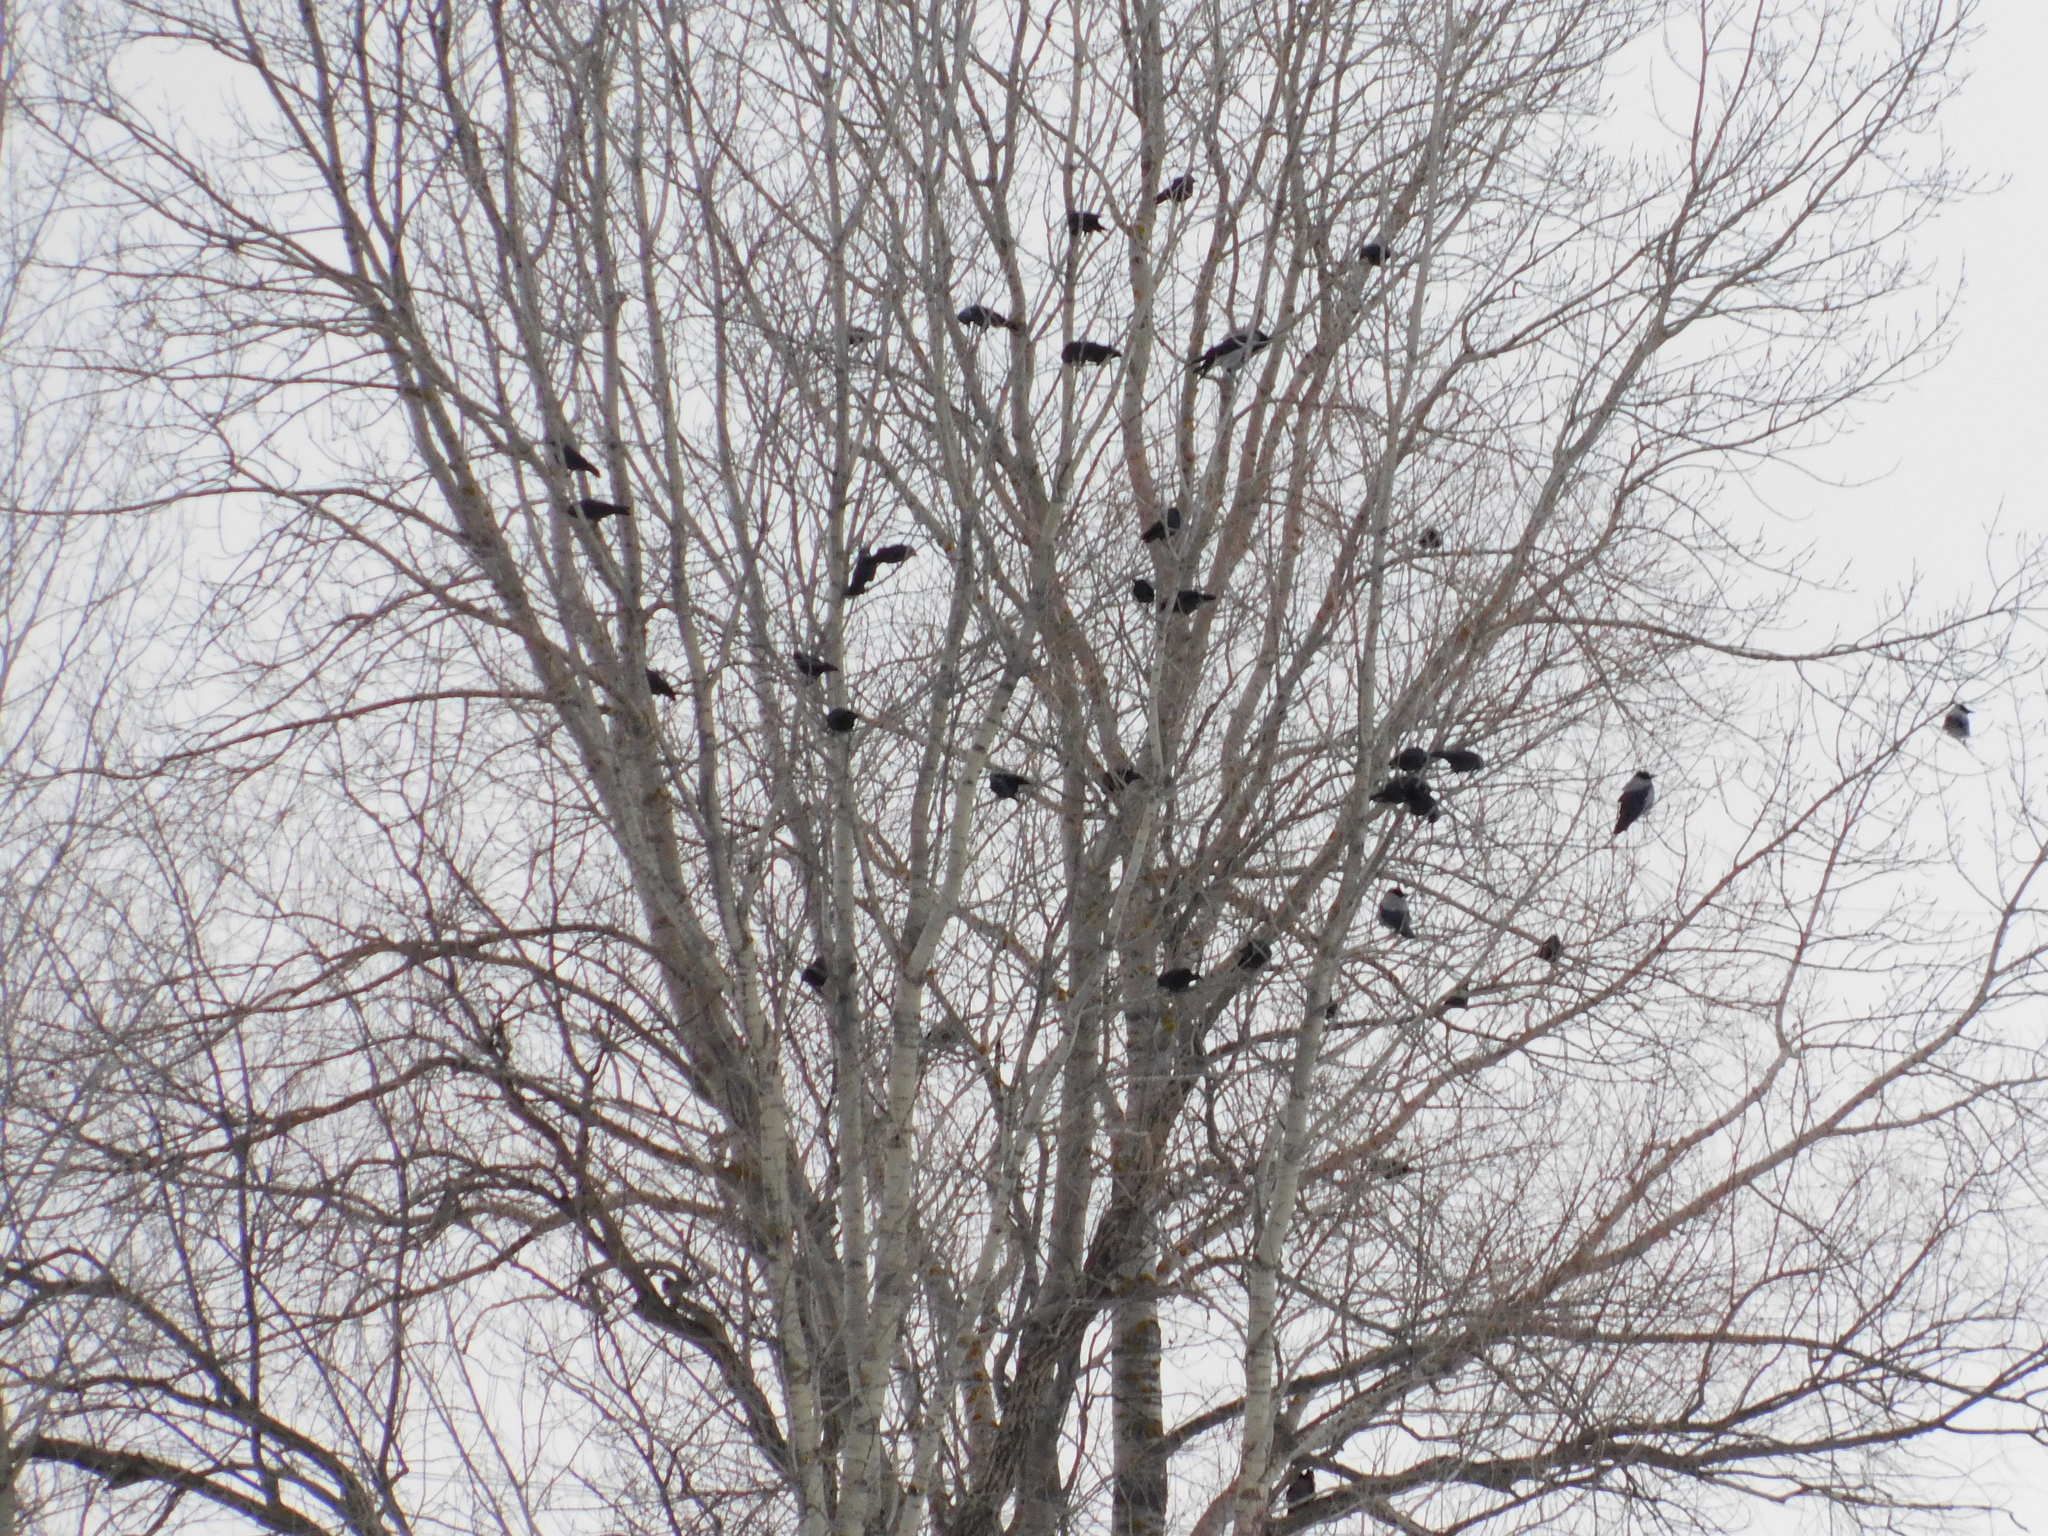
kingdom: Animalia
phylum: Chordata
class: Aves
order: Passeriformes
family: Corvidae
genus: Coloeus
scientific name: Coloeus monedula
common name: Western jackdaw
